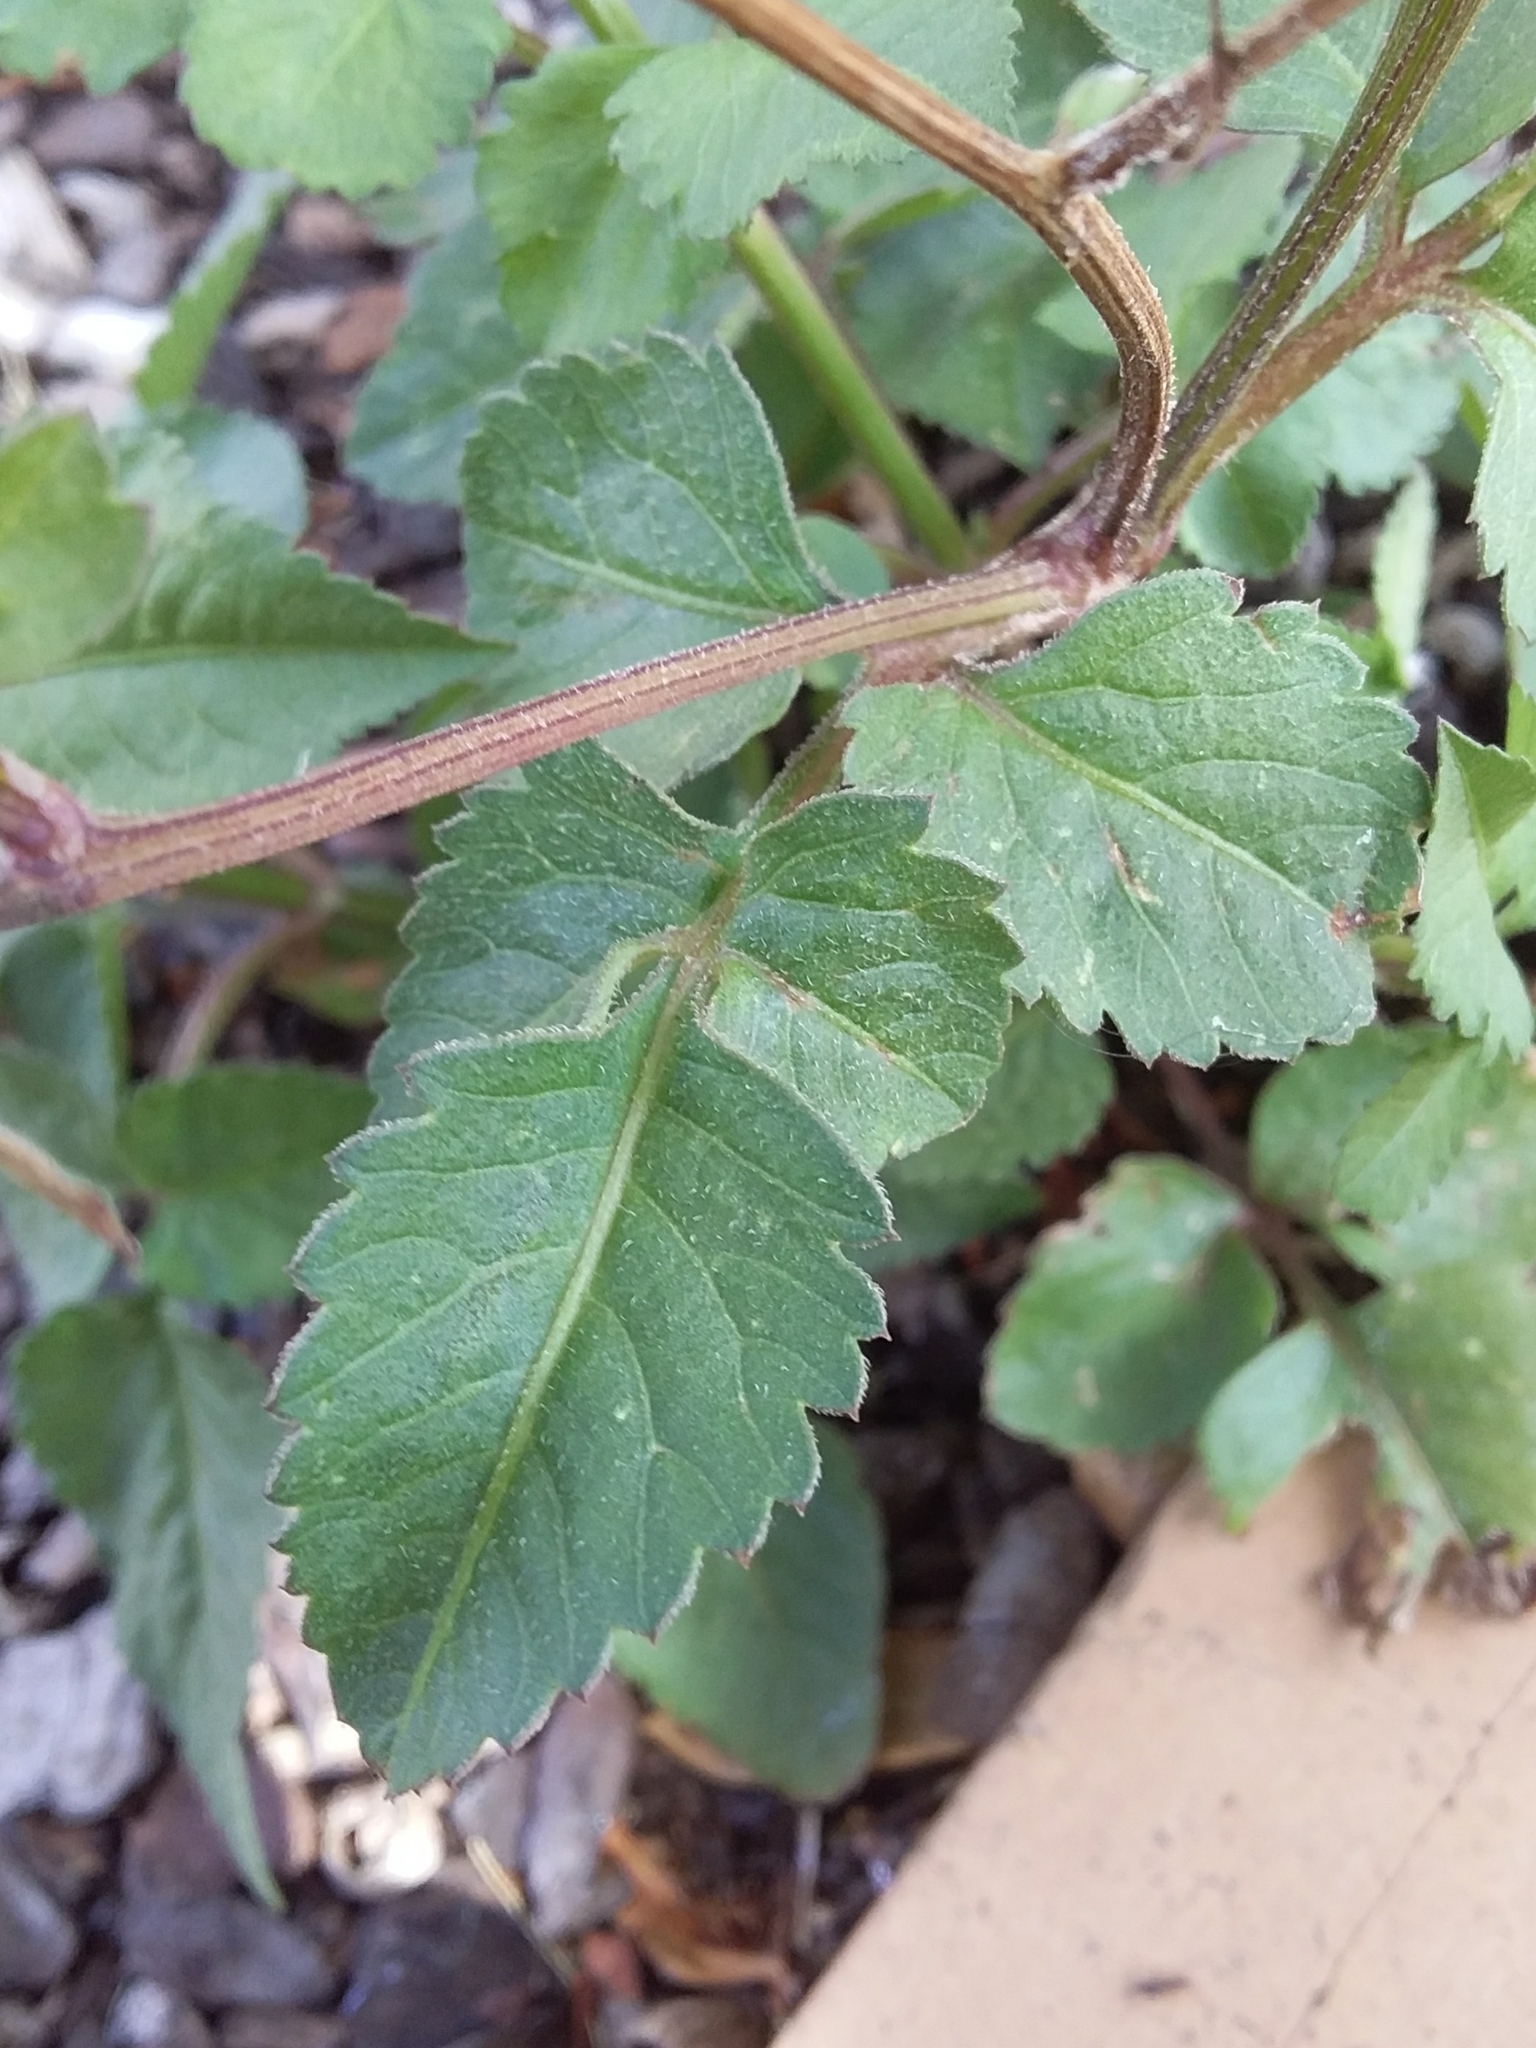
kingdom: Plantae
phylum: Tracheophyta
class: Magnoliopsida
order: Asterales
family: Asteraceae
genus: Bidens
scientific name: Bidens pilosa
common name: Black-jack
